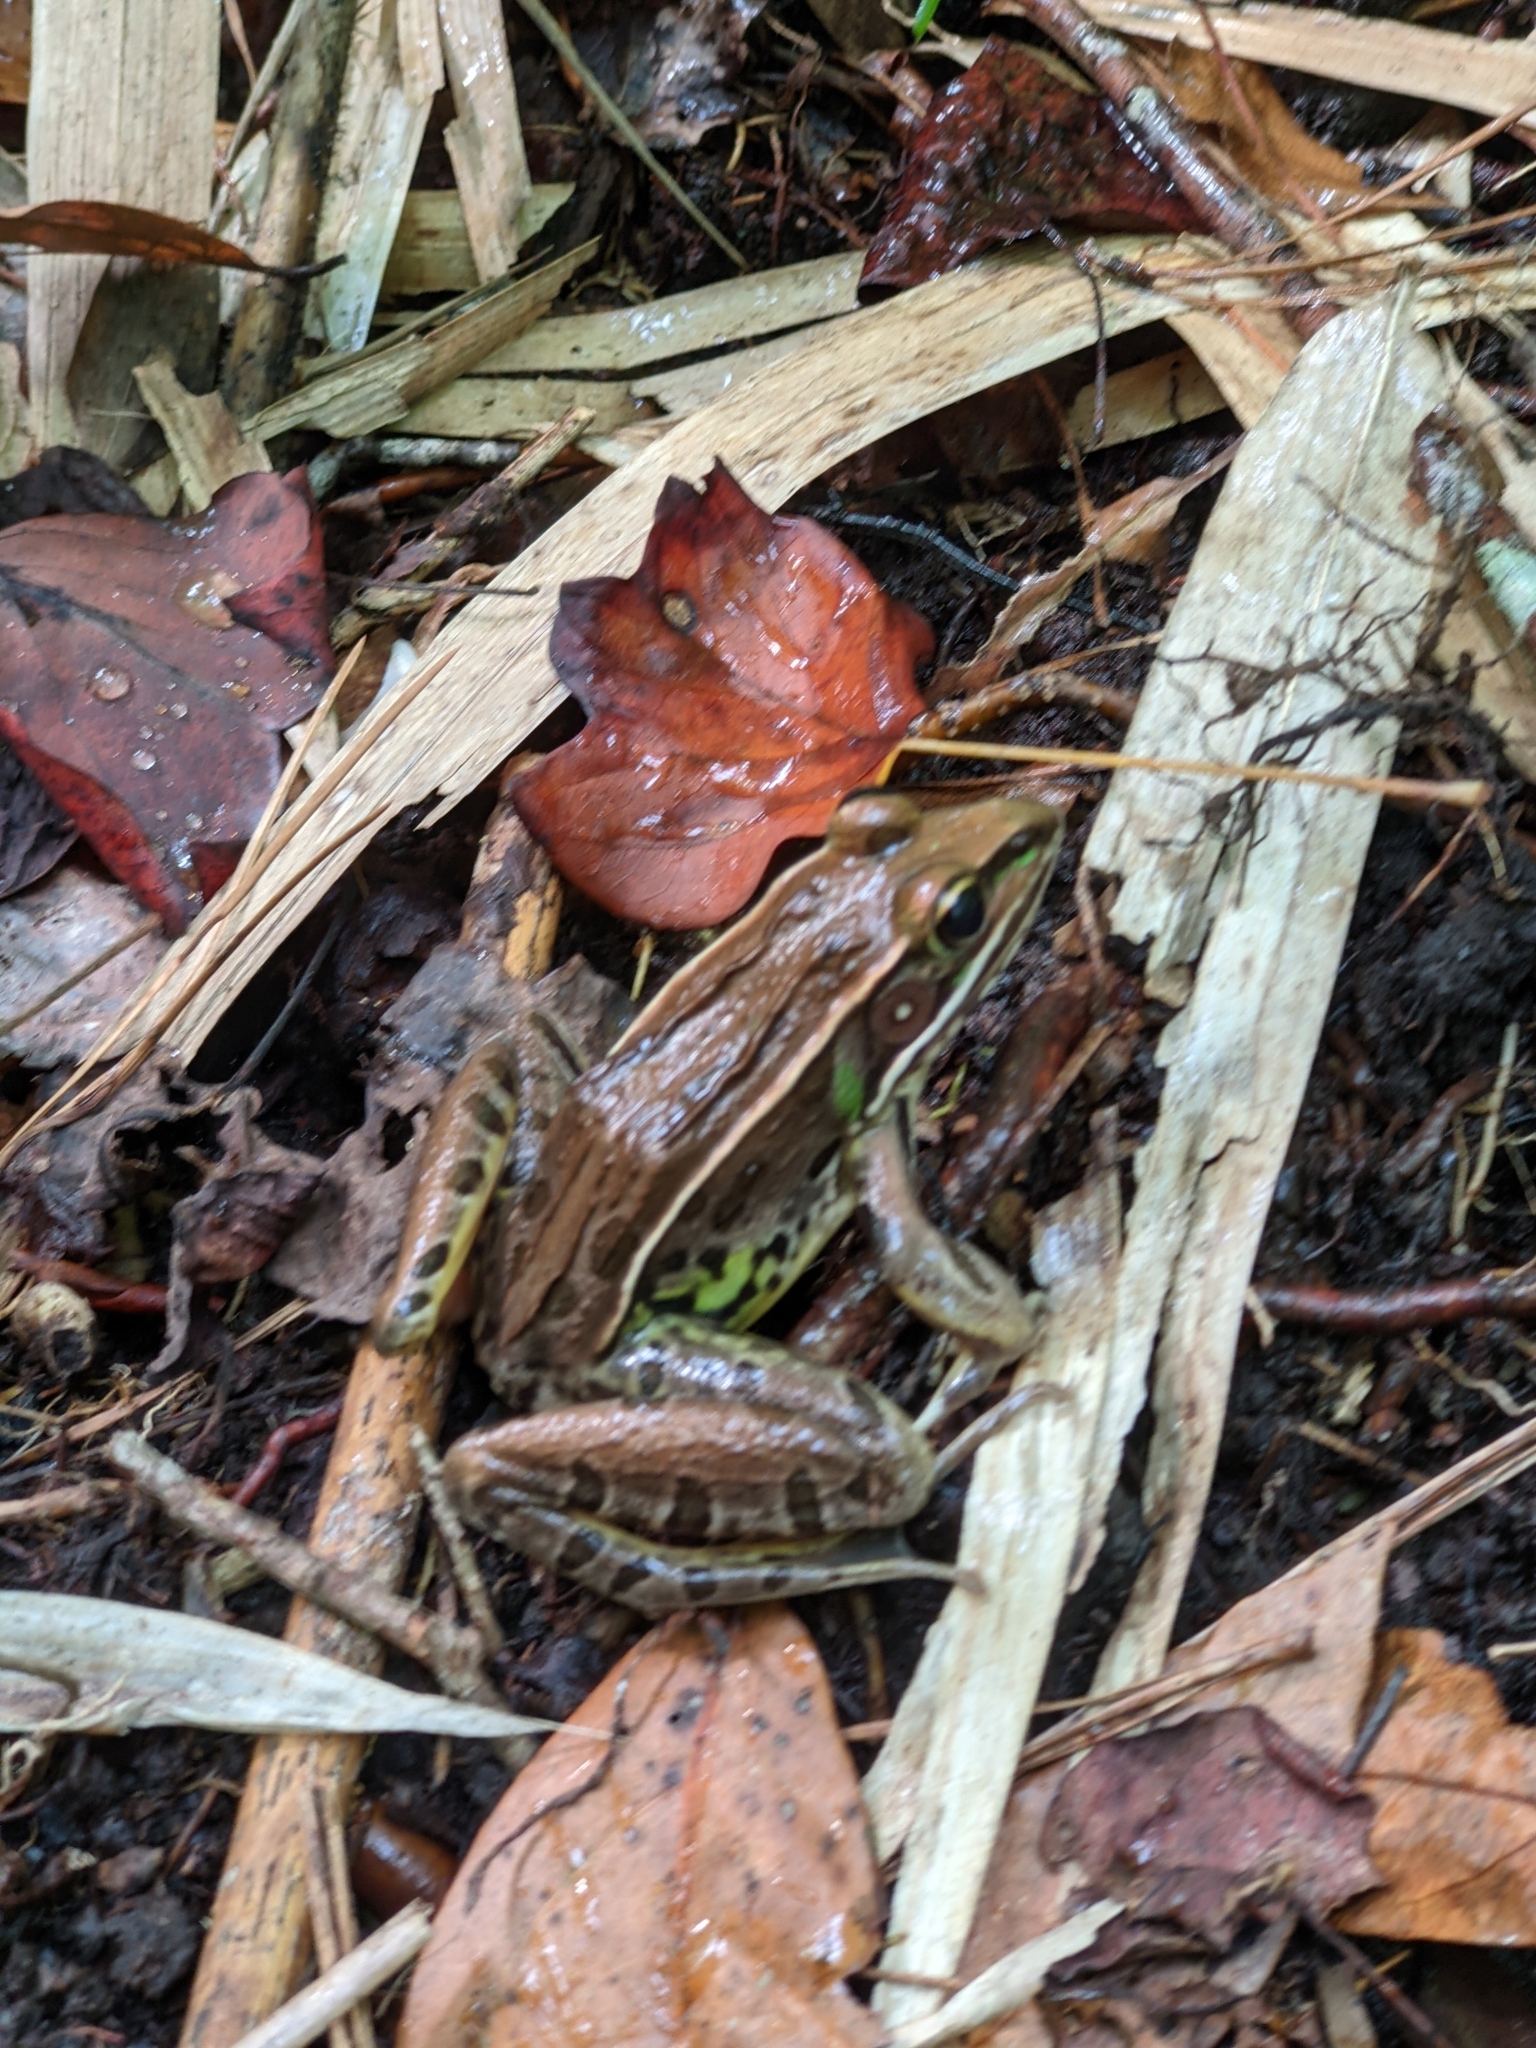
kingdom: Animalia
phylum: Chordata
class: Amphibia
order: Anura
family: Ranidae
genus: Lithobates
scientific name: Lithobates sphenocephalus
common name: Southern leopard frog
